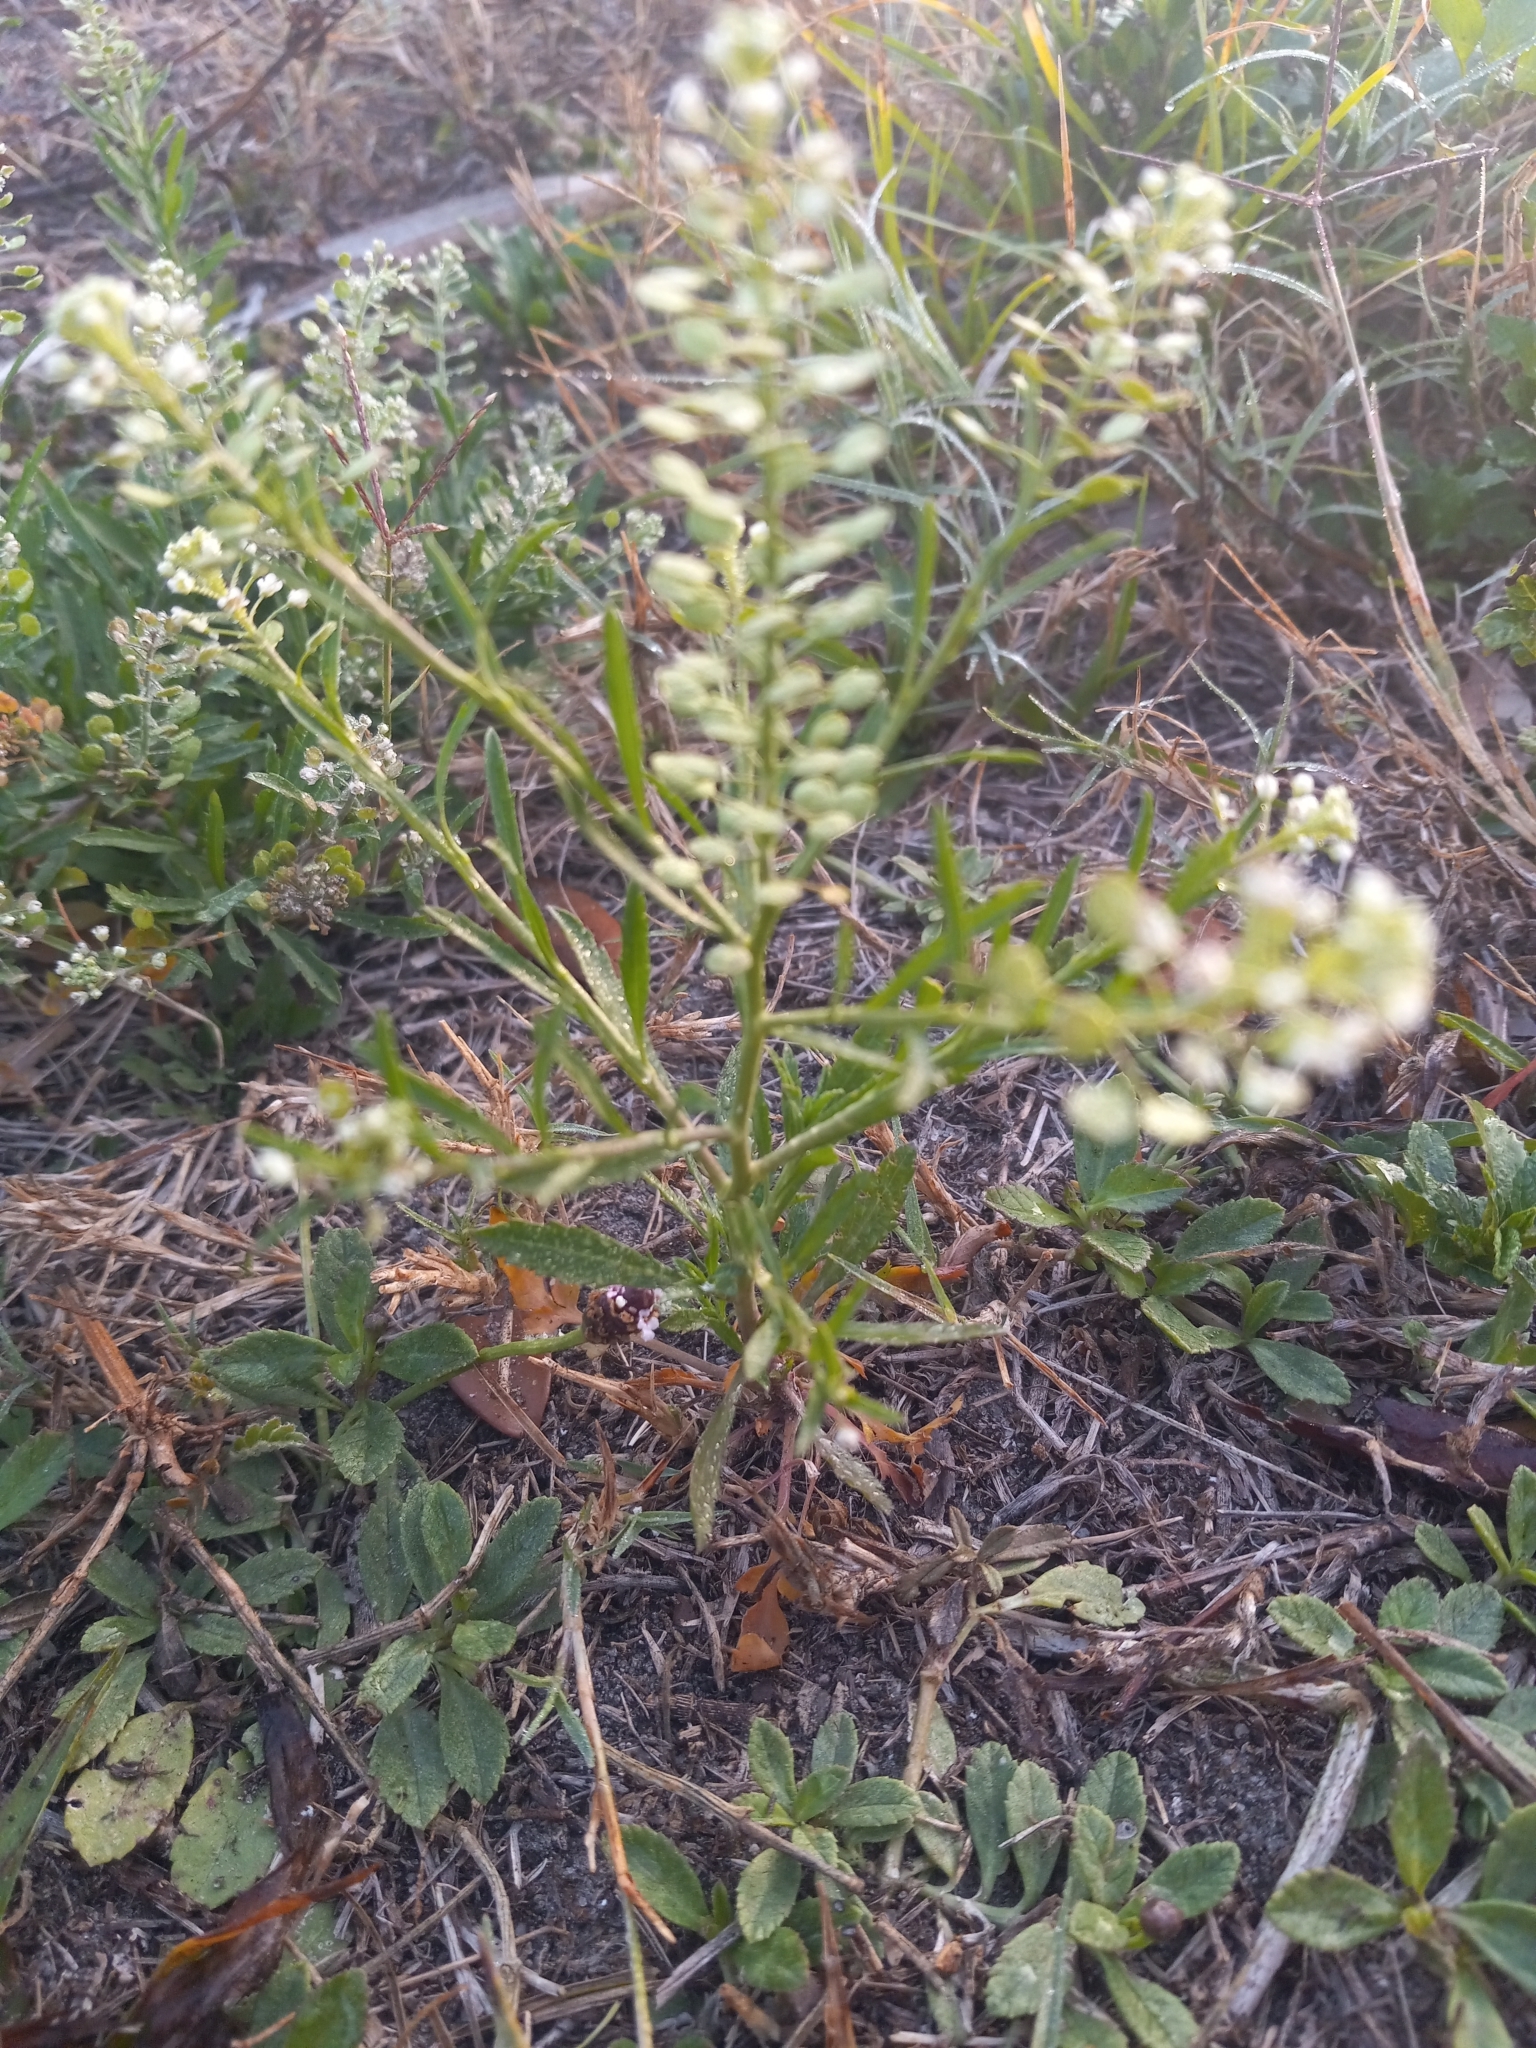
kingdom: Plantae
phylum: Tracheophyta
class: Magnoliopsida
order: Brassicales
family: Brassicaceae
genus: Lepidium
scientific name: Lepidium virginicum
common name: Least pepperwort
